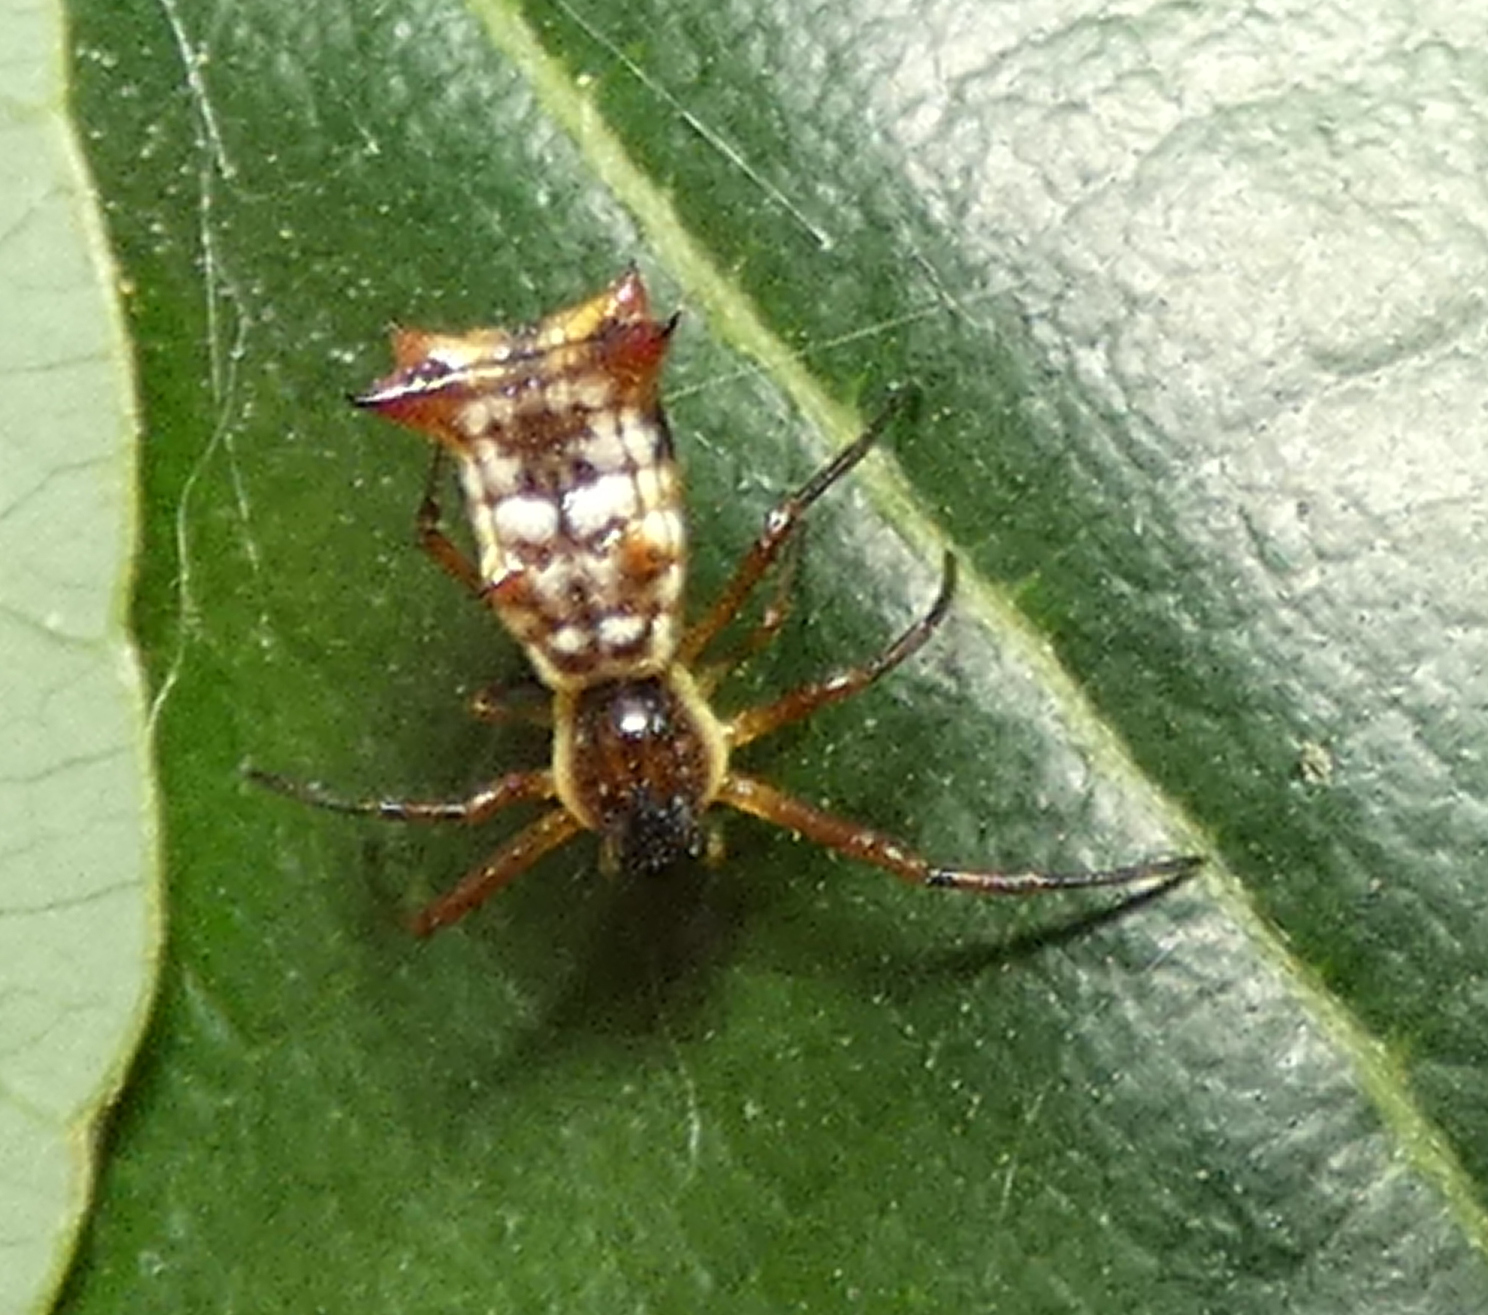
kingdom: Animalia
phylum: Arthropoda
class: Arachnida
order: Araneae
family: Araneidae
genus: Micrathena
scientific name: Micrathena fissispina
